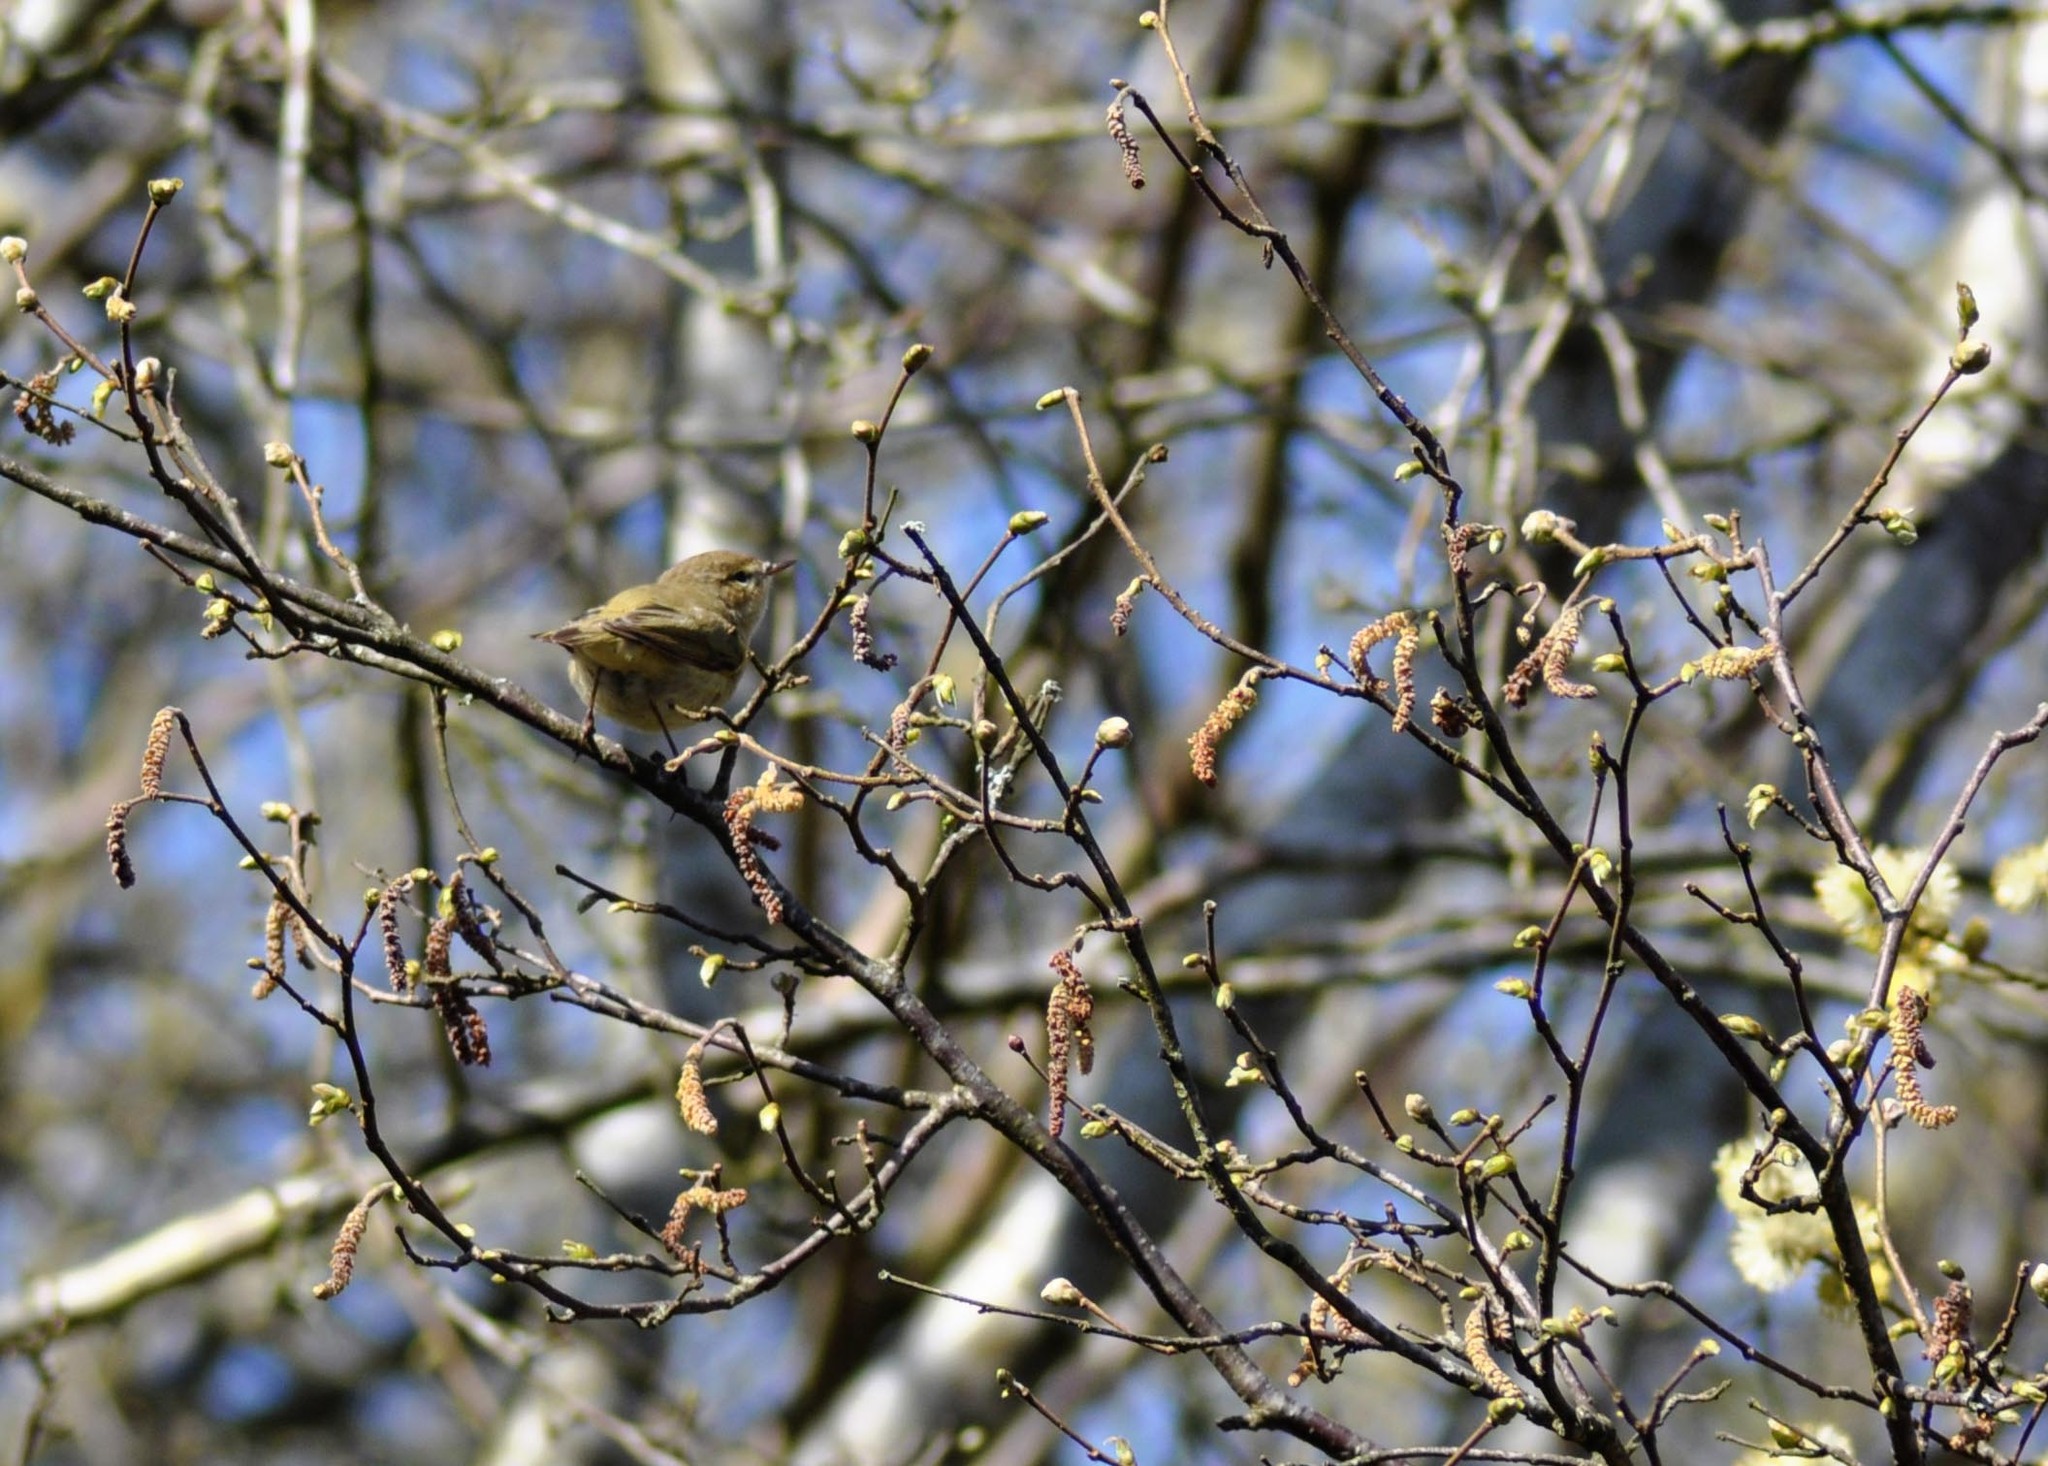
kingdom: Animalia
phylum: Chordata
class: Aves
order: Passeriformes
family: Phylloscopidae
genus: Phylloscopus
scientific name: Phylloscopus collybita
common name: Common chiffchaff
